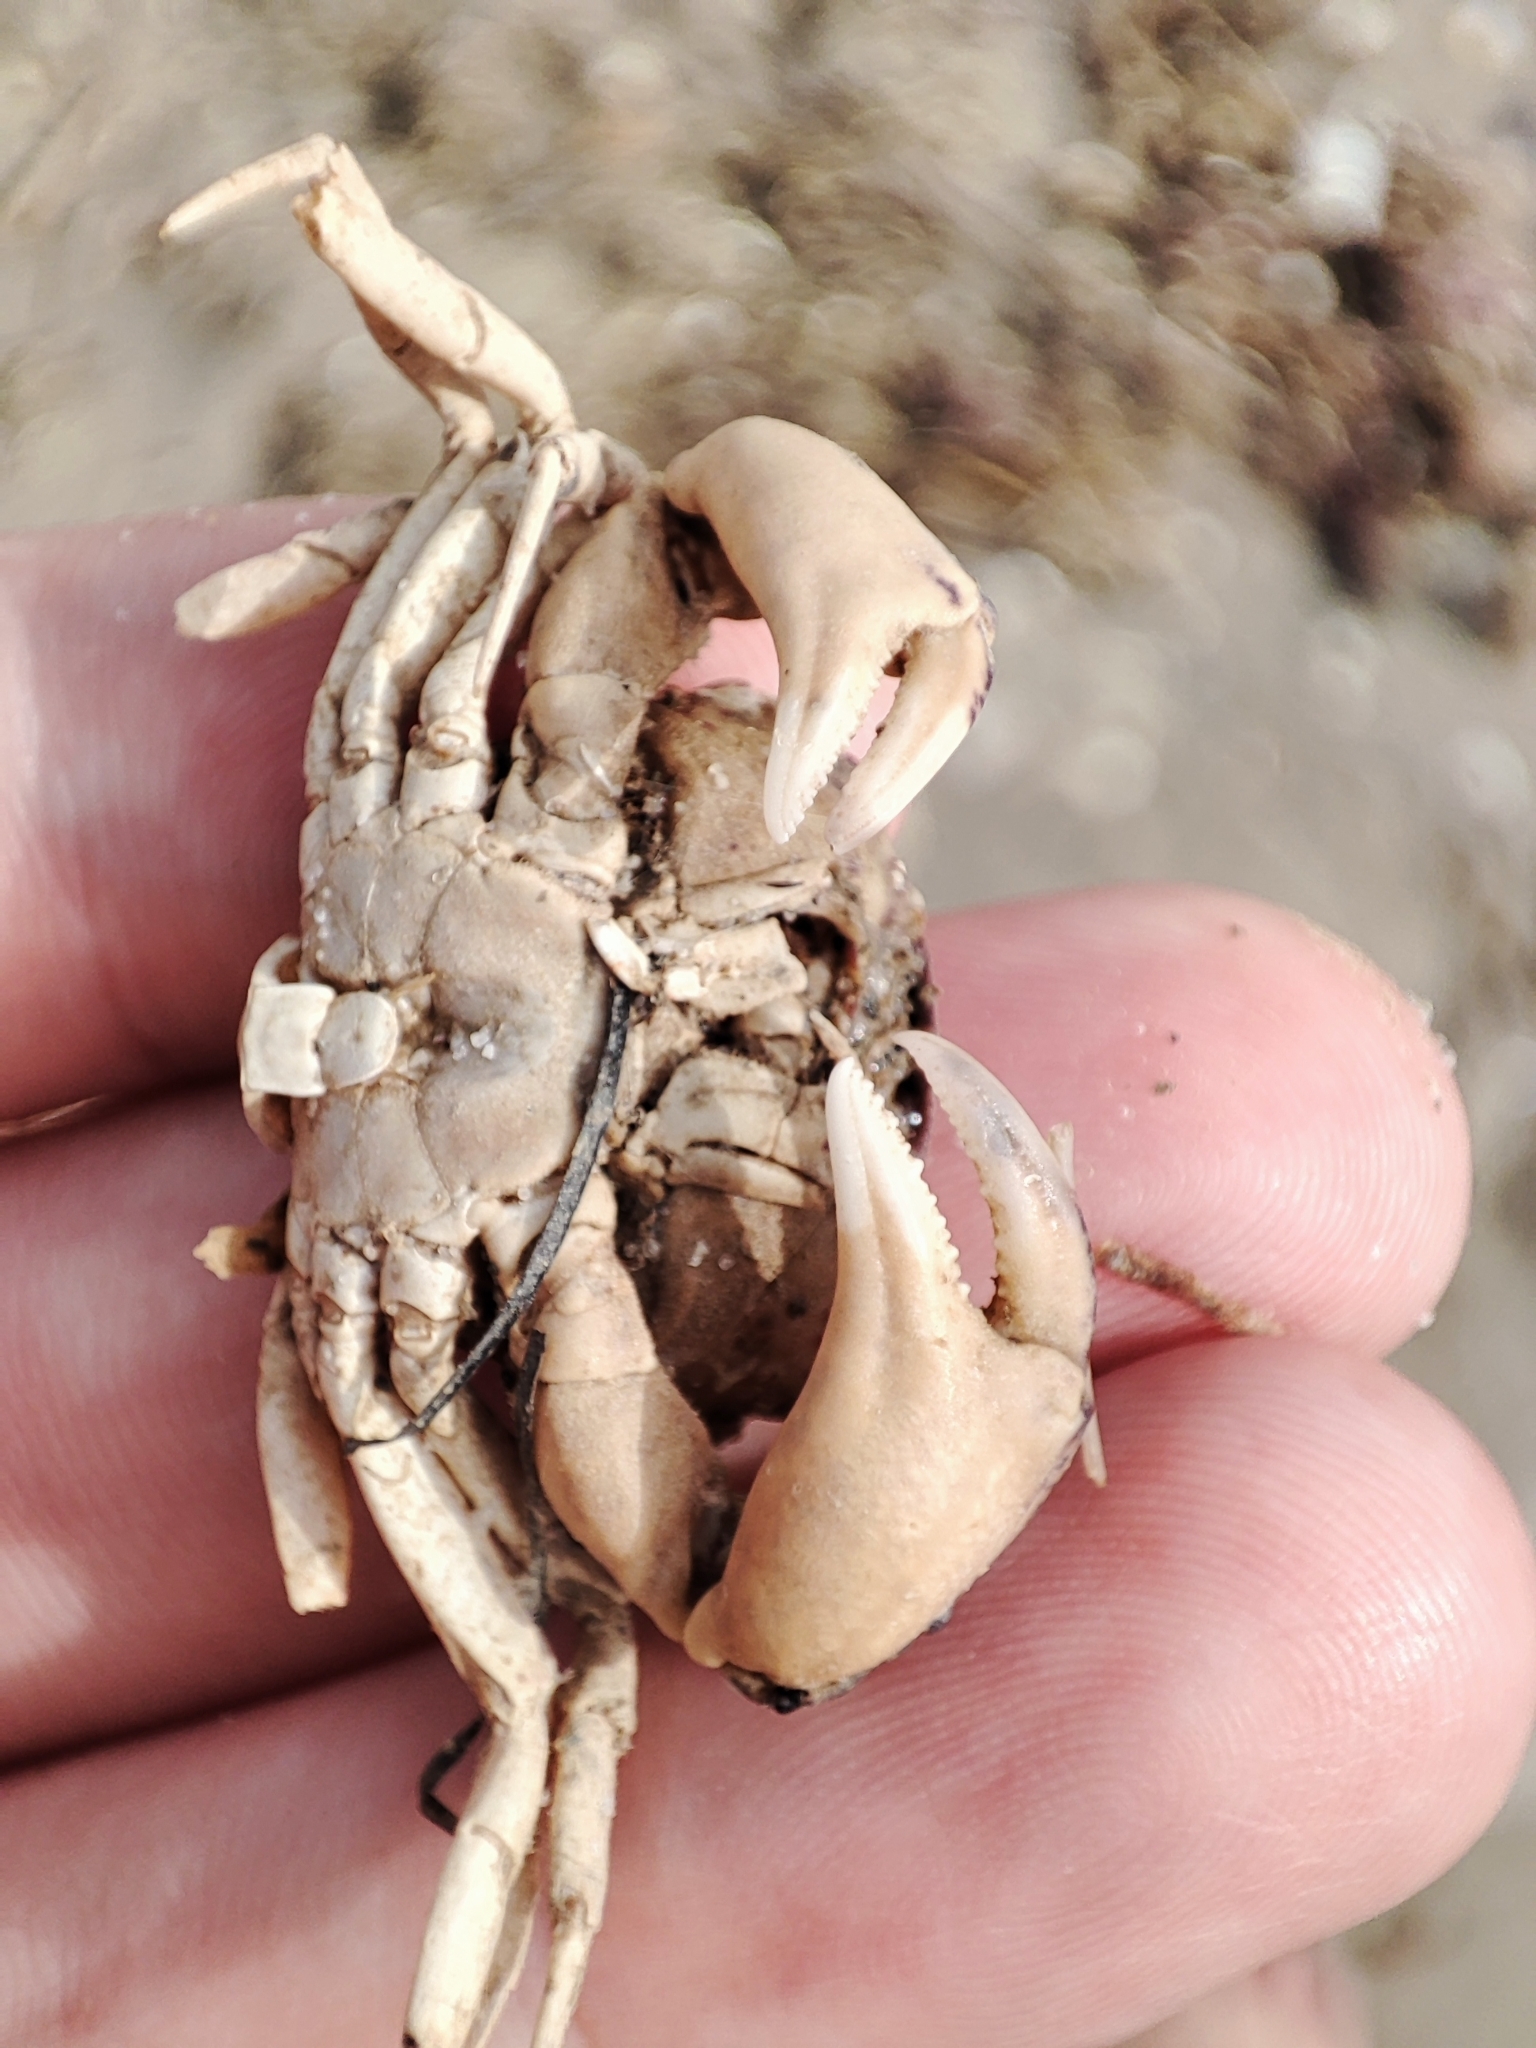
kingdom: Animalia
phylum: Arthropoda
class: Malacostraca
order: Decapoda
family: Panopeidae
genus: Rhithropanopeus
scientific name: Rhithropanopeus harrisii
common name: Dwarf crab
